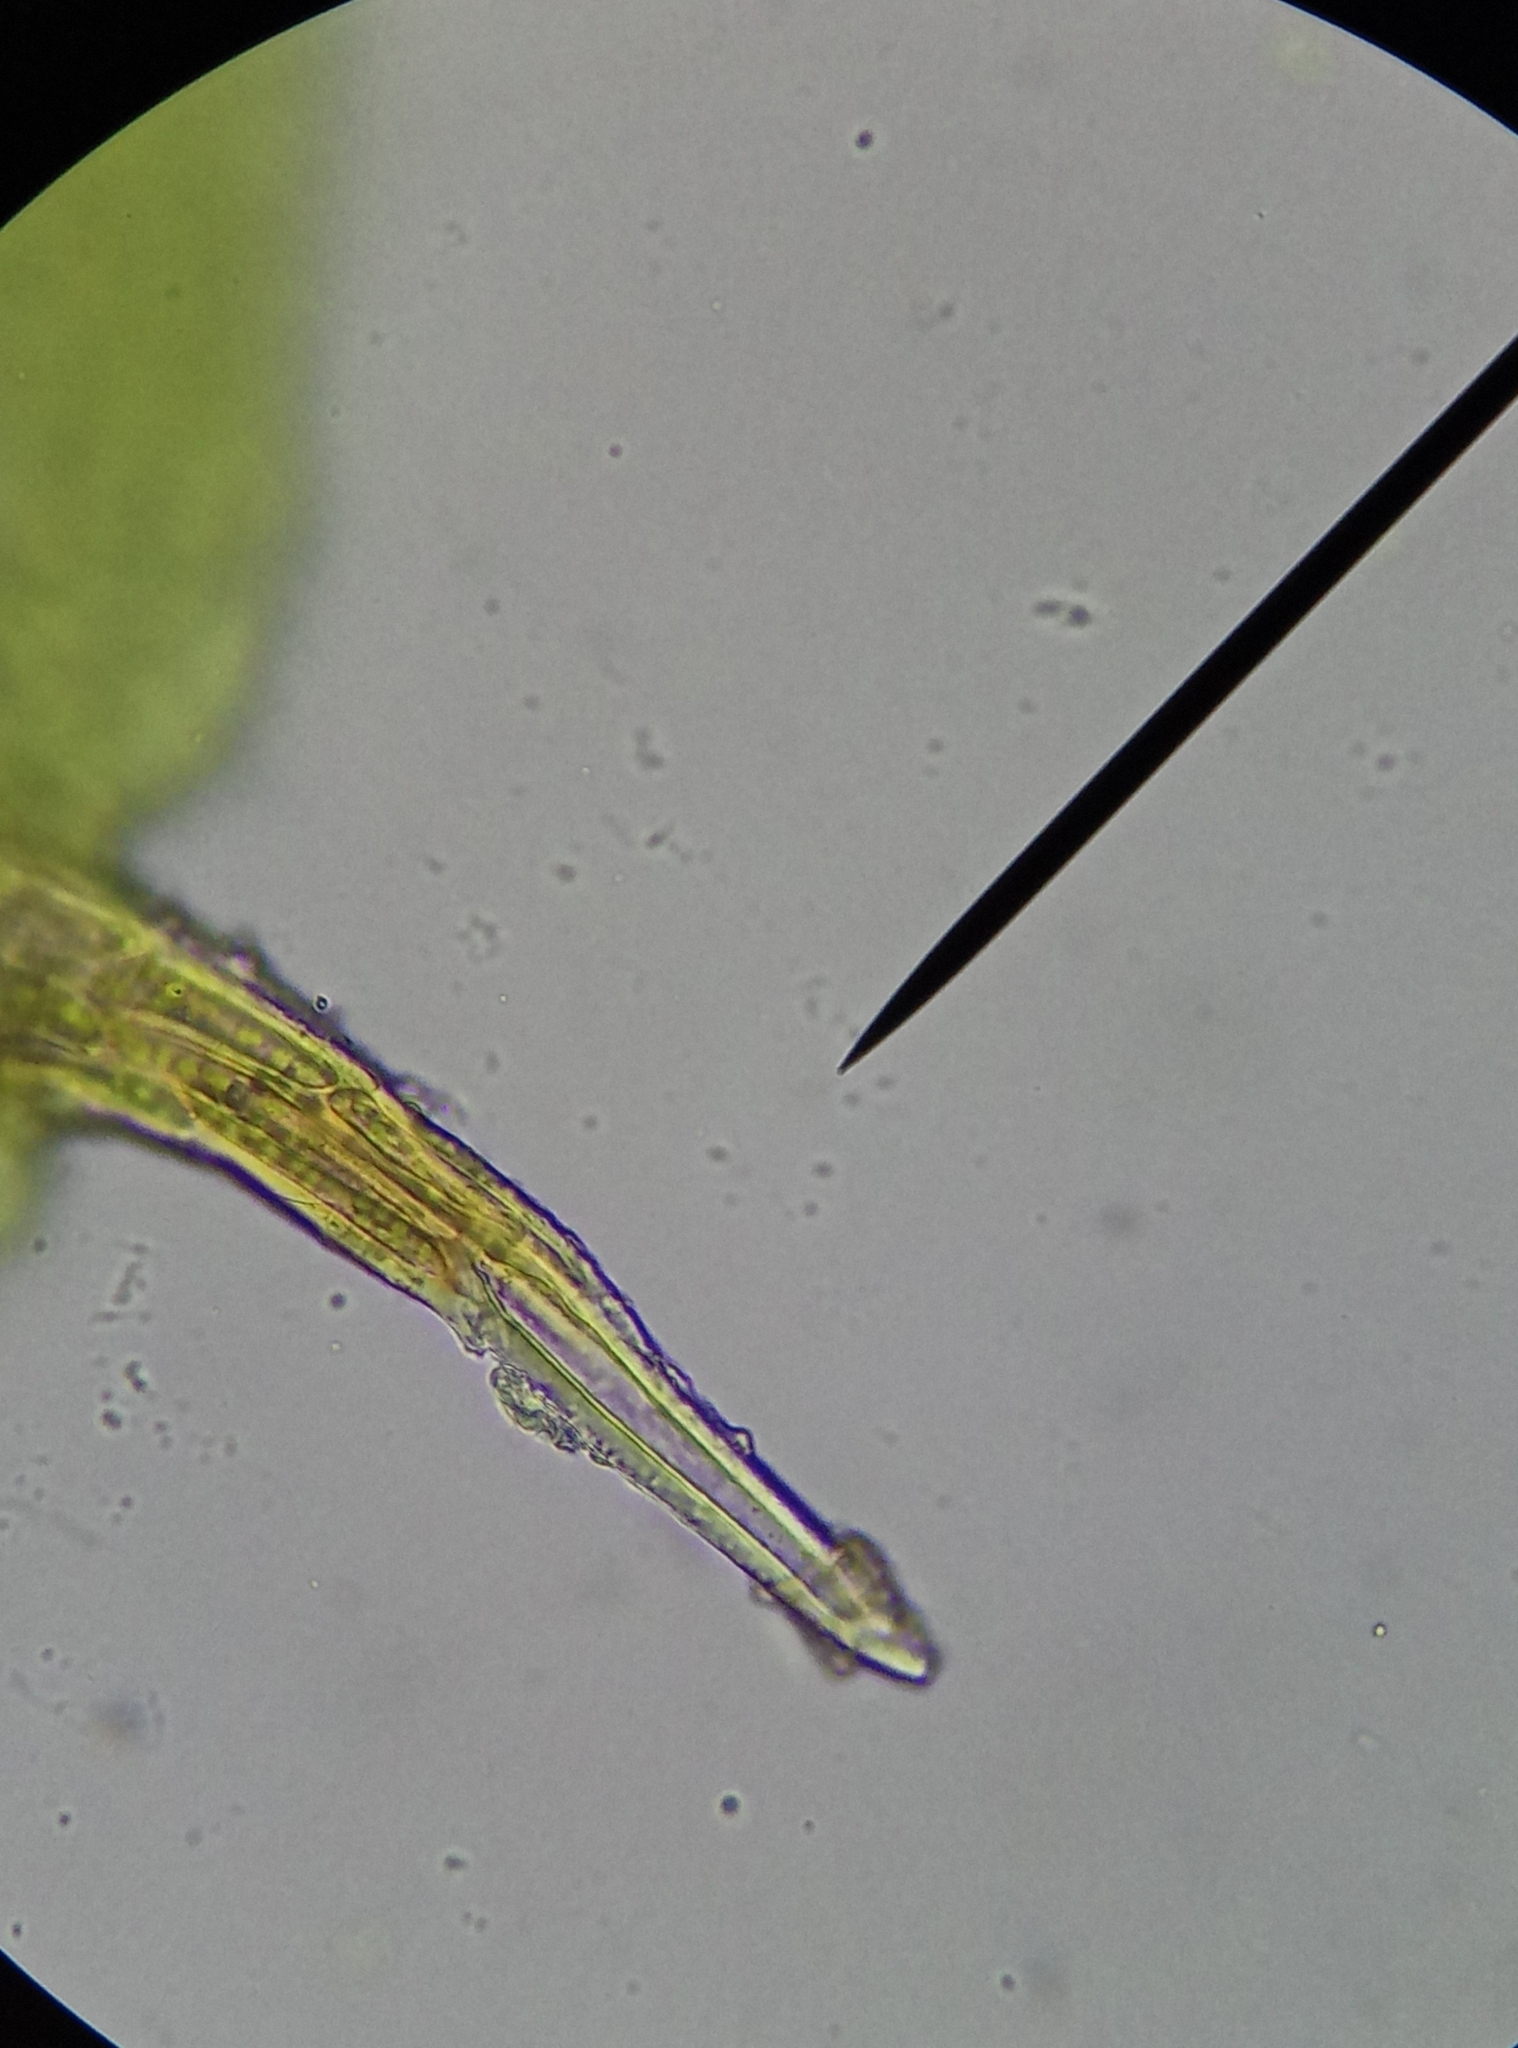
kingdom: Plantae
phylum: Bryophyta
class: Bryopsida
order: Pottiales
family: Pottiaceae
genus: Syntrichia
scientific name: Syntrichia papillosa
